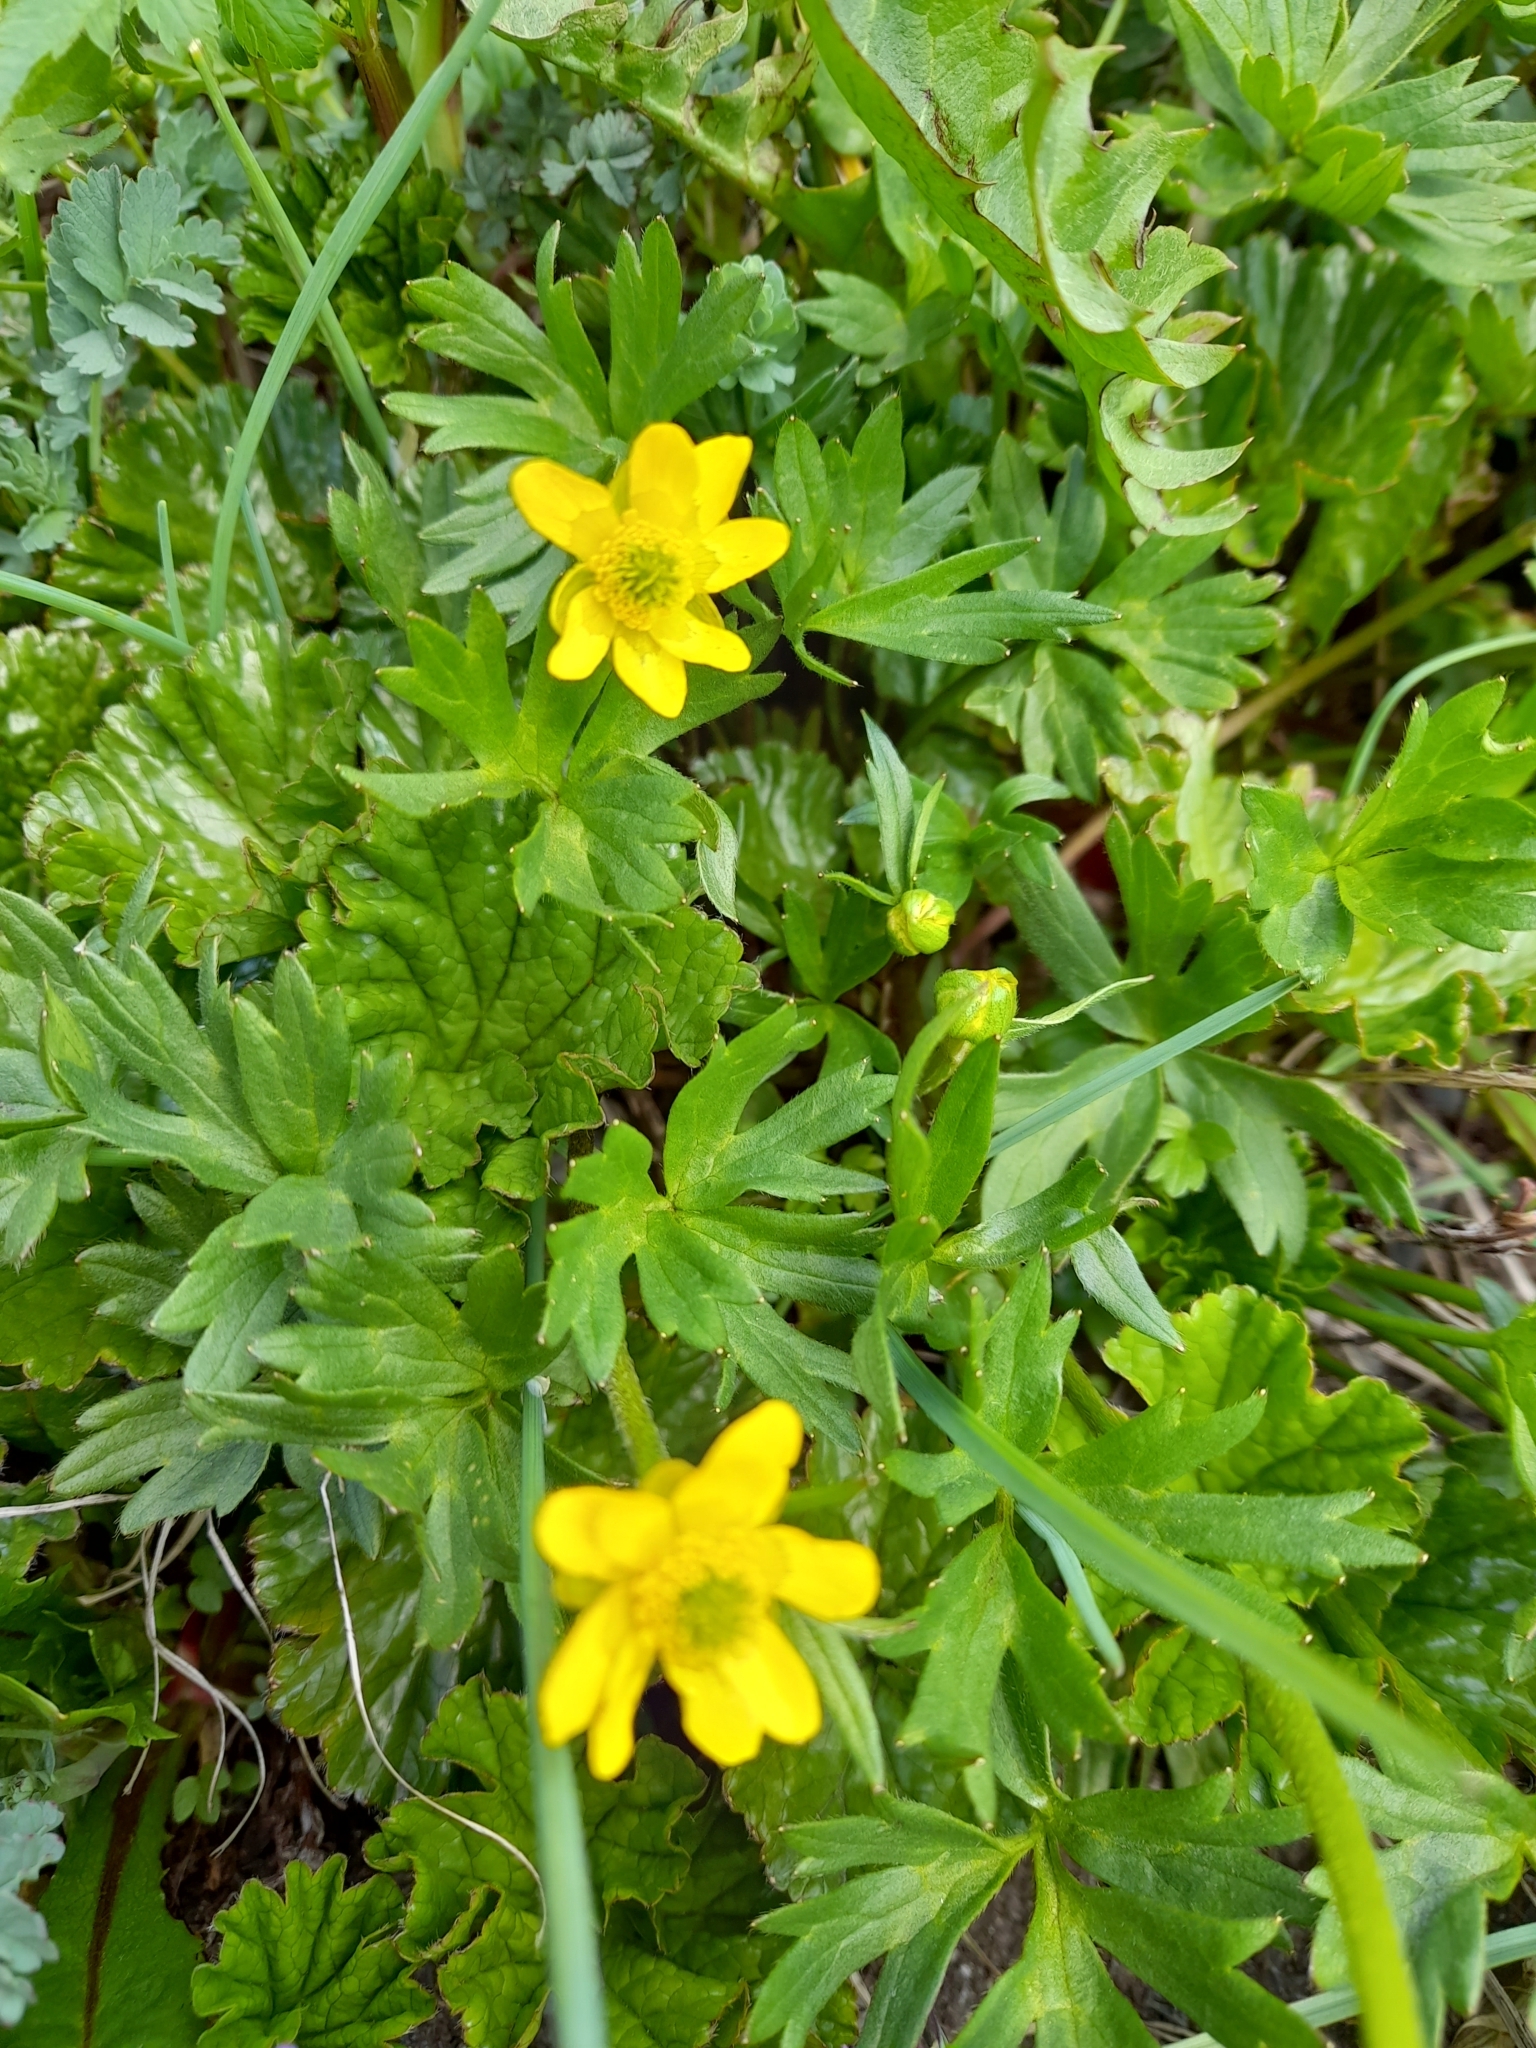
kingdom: Plantae
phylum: Tracheophyta
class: Magnoliopsida
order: Ranunculales
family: Ranunculaceae
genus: Ranunculus
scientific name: Ranunculus peduncularis
